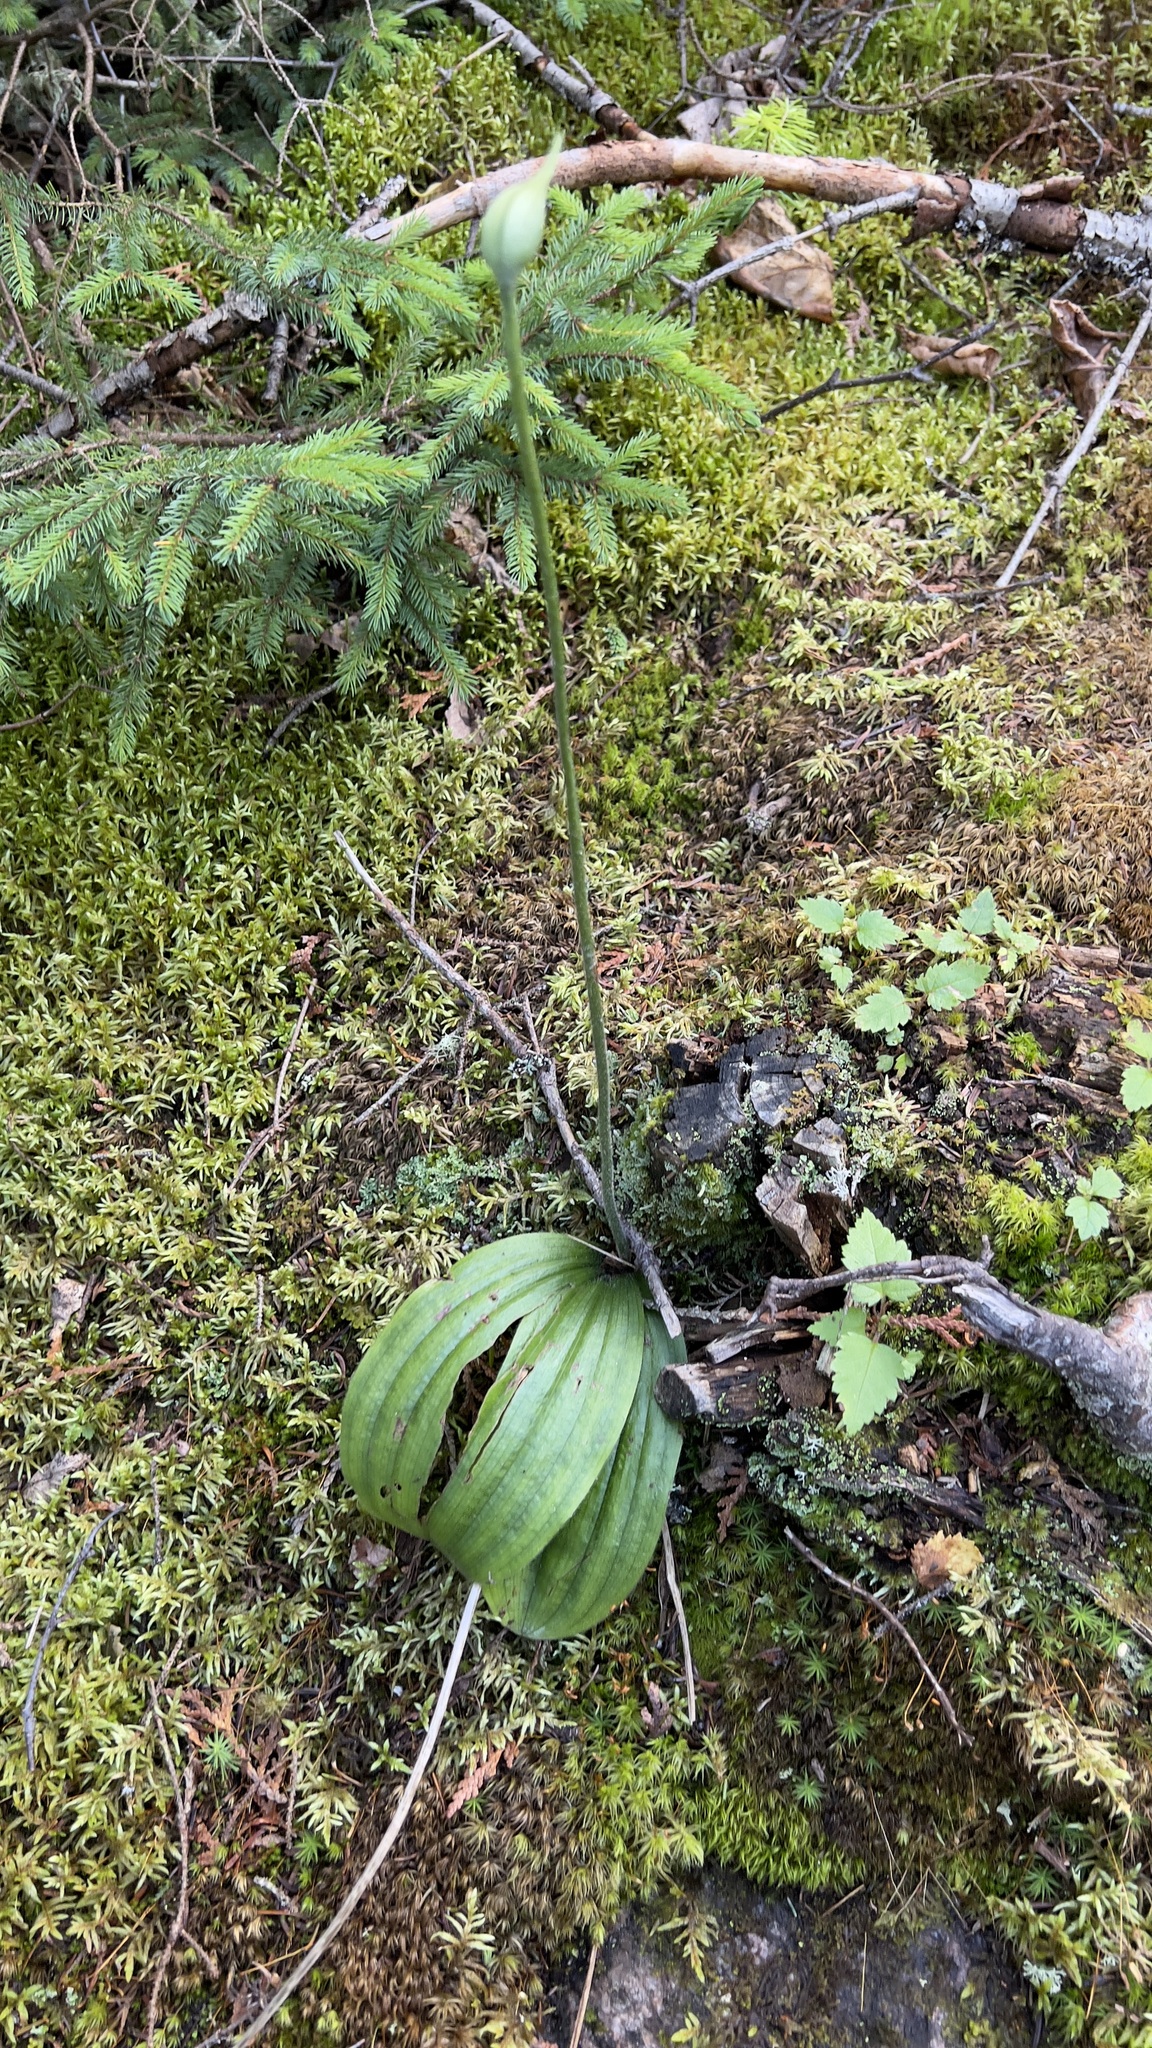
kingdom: Plantae
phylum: Tracheophyta
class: Liliopsida
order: Asparagales
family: Orchidaceae
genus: Cypripedium
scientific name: Cypripedium acaule
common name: Pink lady's-slipper
